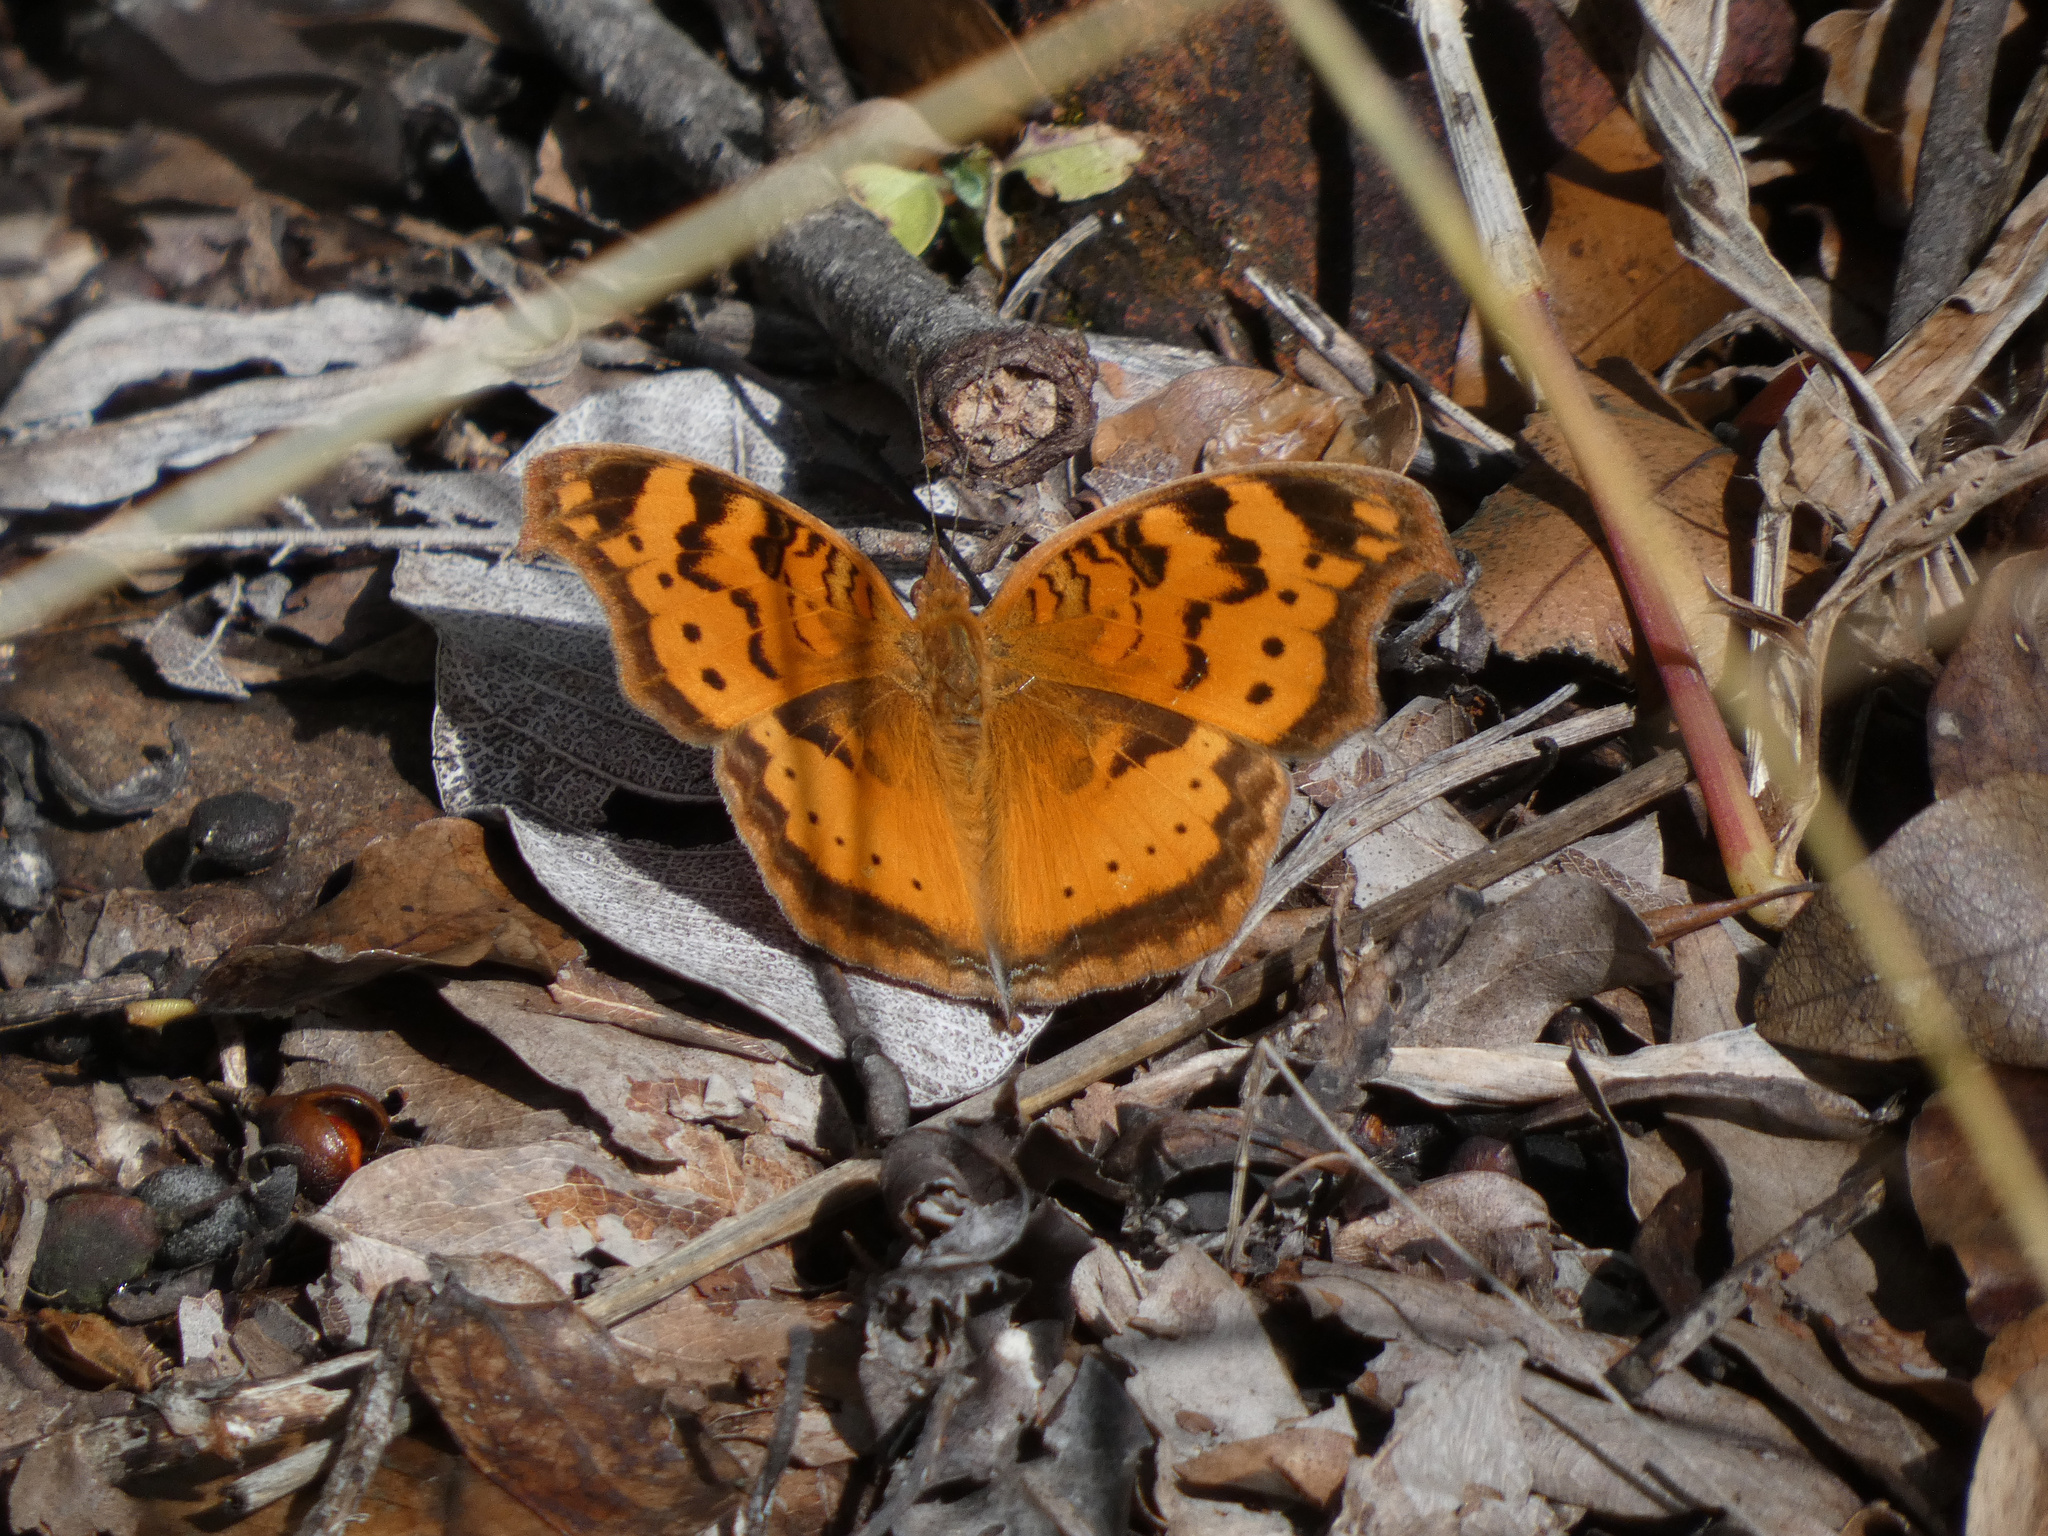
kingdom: Animalia
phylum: Arthropoda
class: Insecta
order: Lepidoptera
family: Nymphalidae
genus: Junonia
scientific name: Junonia antilope
